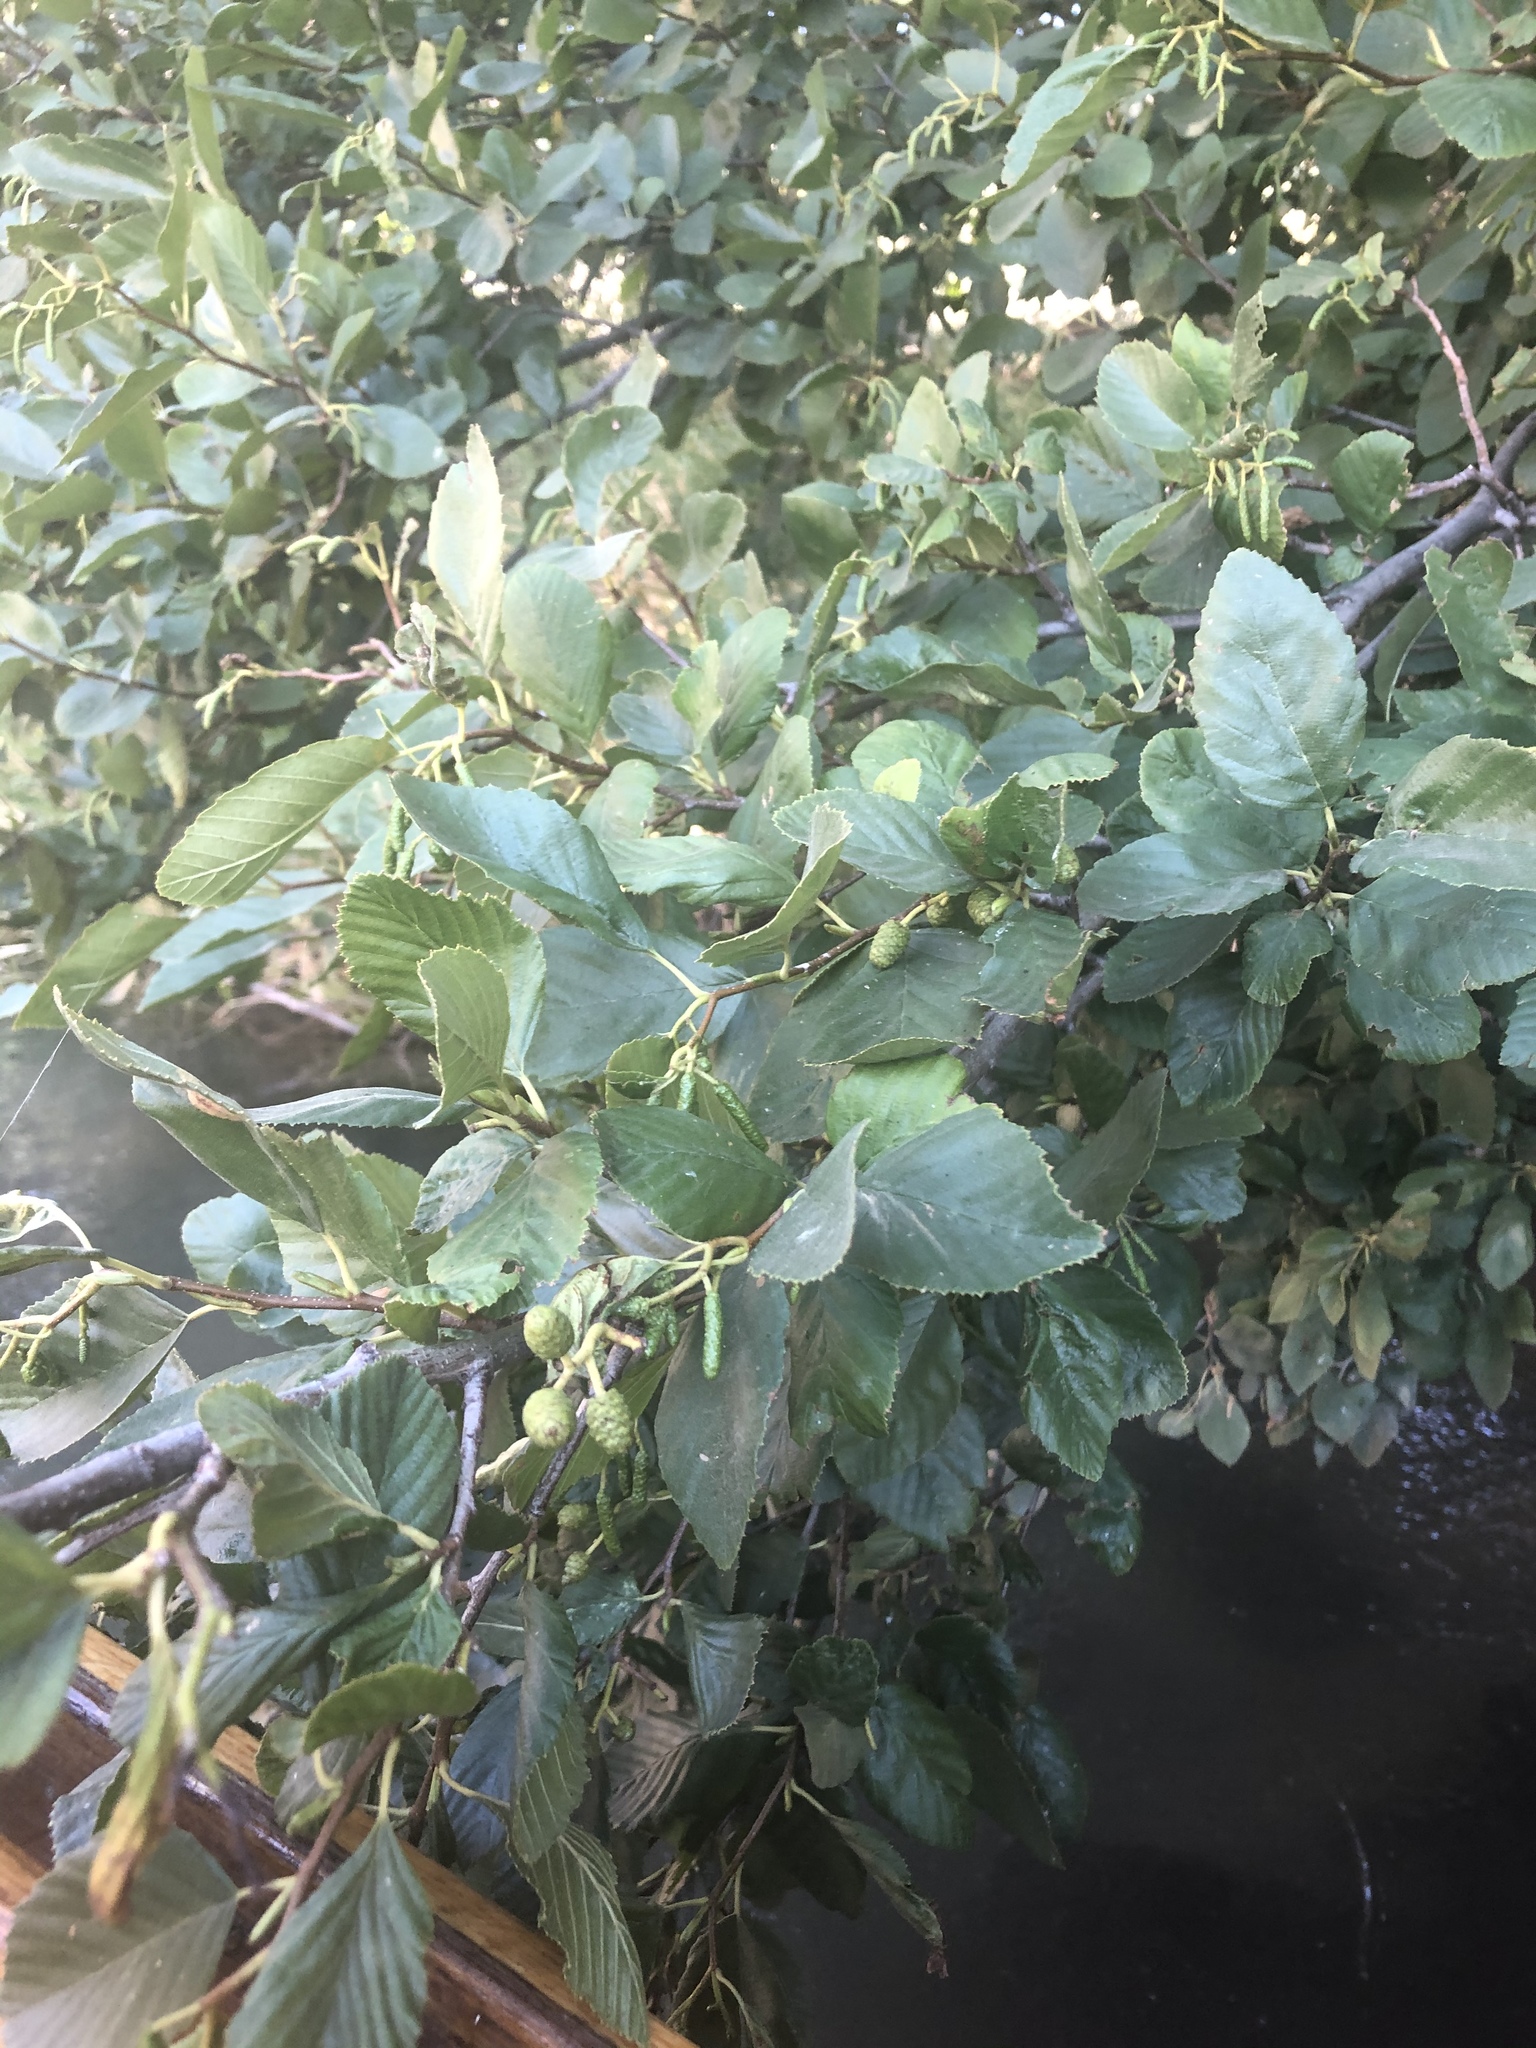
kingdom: Plantae
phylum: Tracheophyta
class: Magnoliopsida
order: Fagales
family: Betulaceae
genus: Alnus
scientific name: Alnus rhombifolia
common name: California alder
